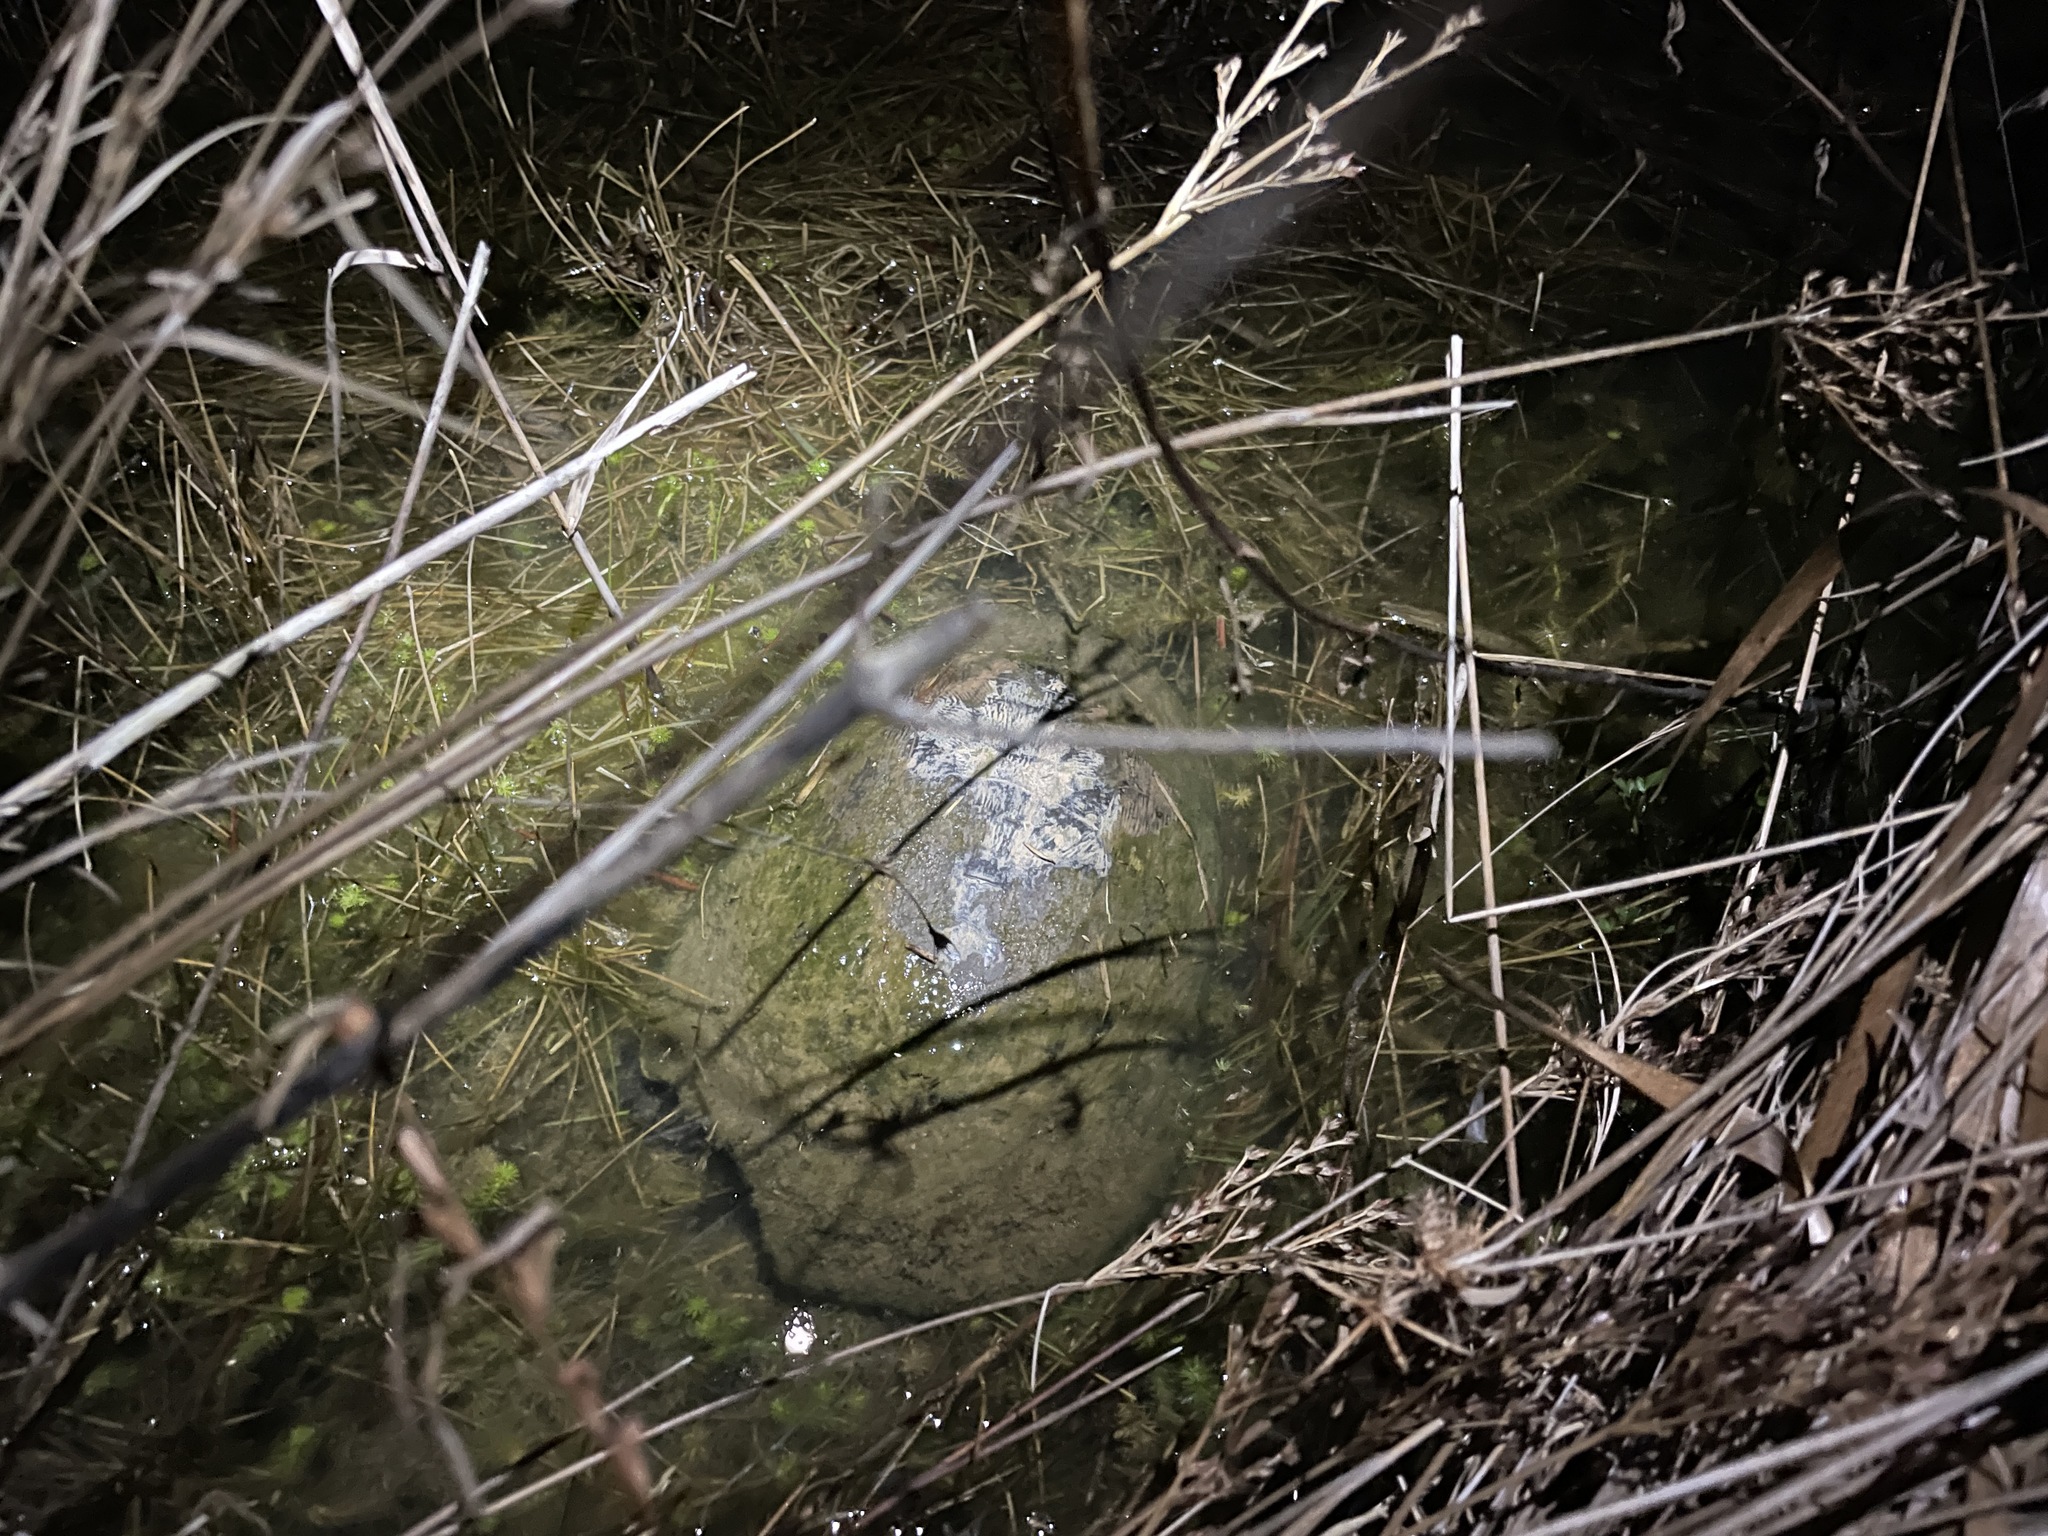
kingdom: Animalia
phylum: Chordata
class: Testudines
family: Emydidae
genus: Deirochelys
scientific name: Deirochelys reticularia
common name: Chicken turtle
